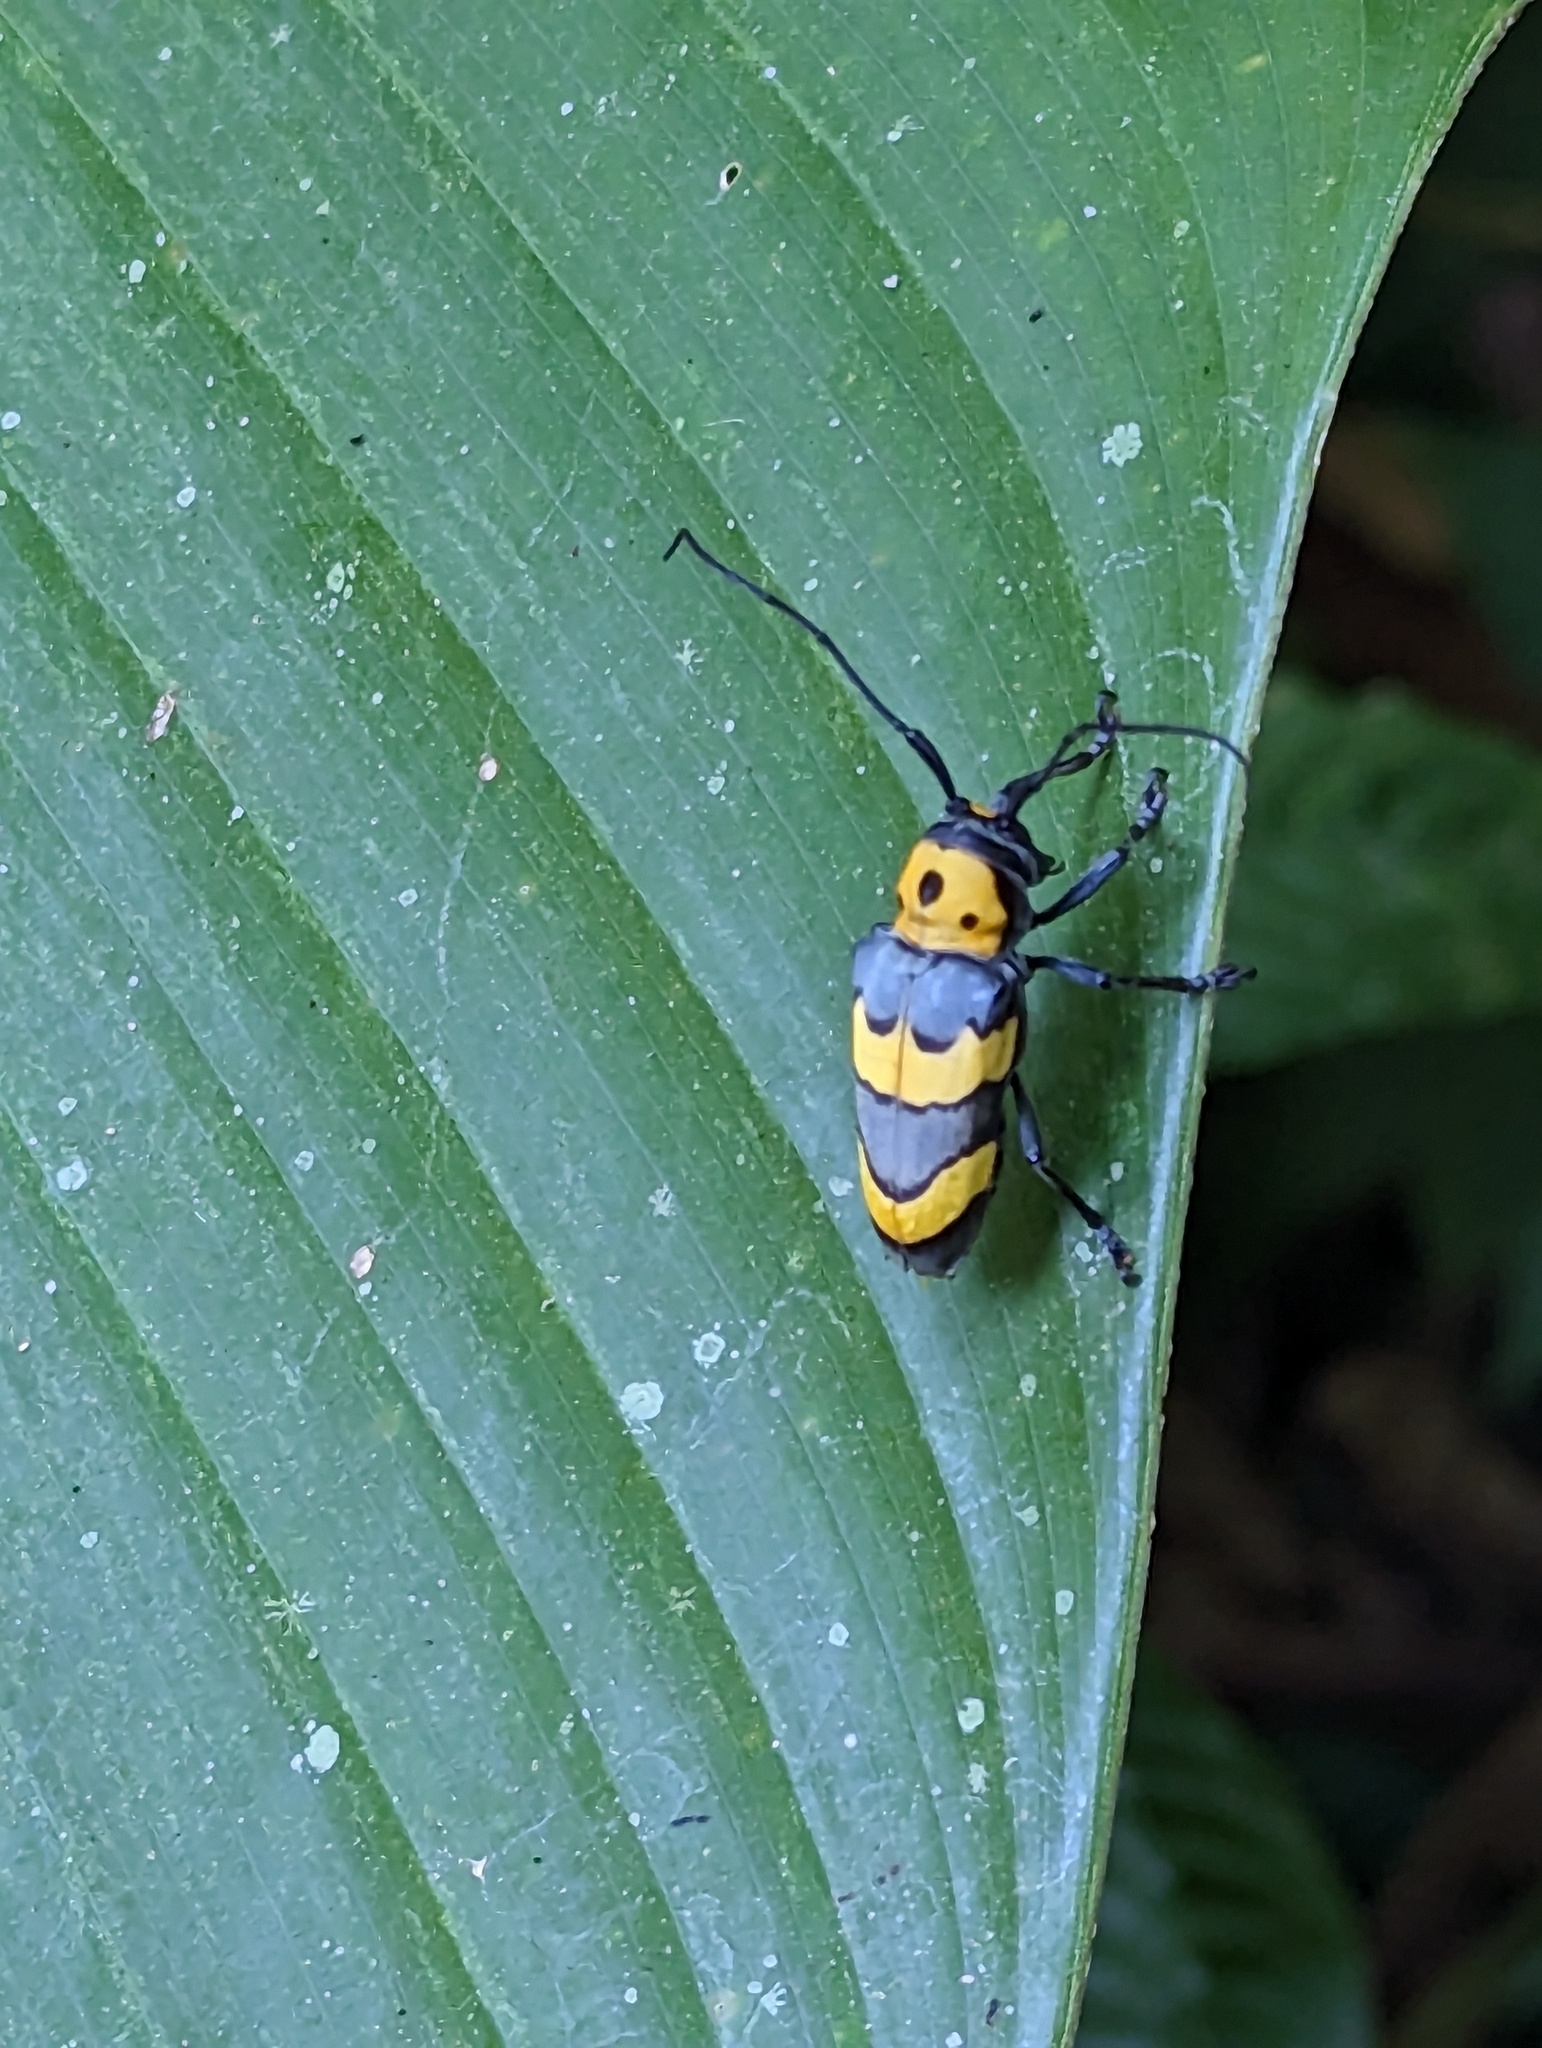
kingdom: Animalia
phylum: Arthropoda
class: Insecta
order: Coleoptera
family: Cerambycidae
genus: Oedudes
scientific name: Oedudes bifasciatus
